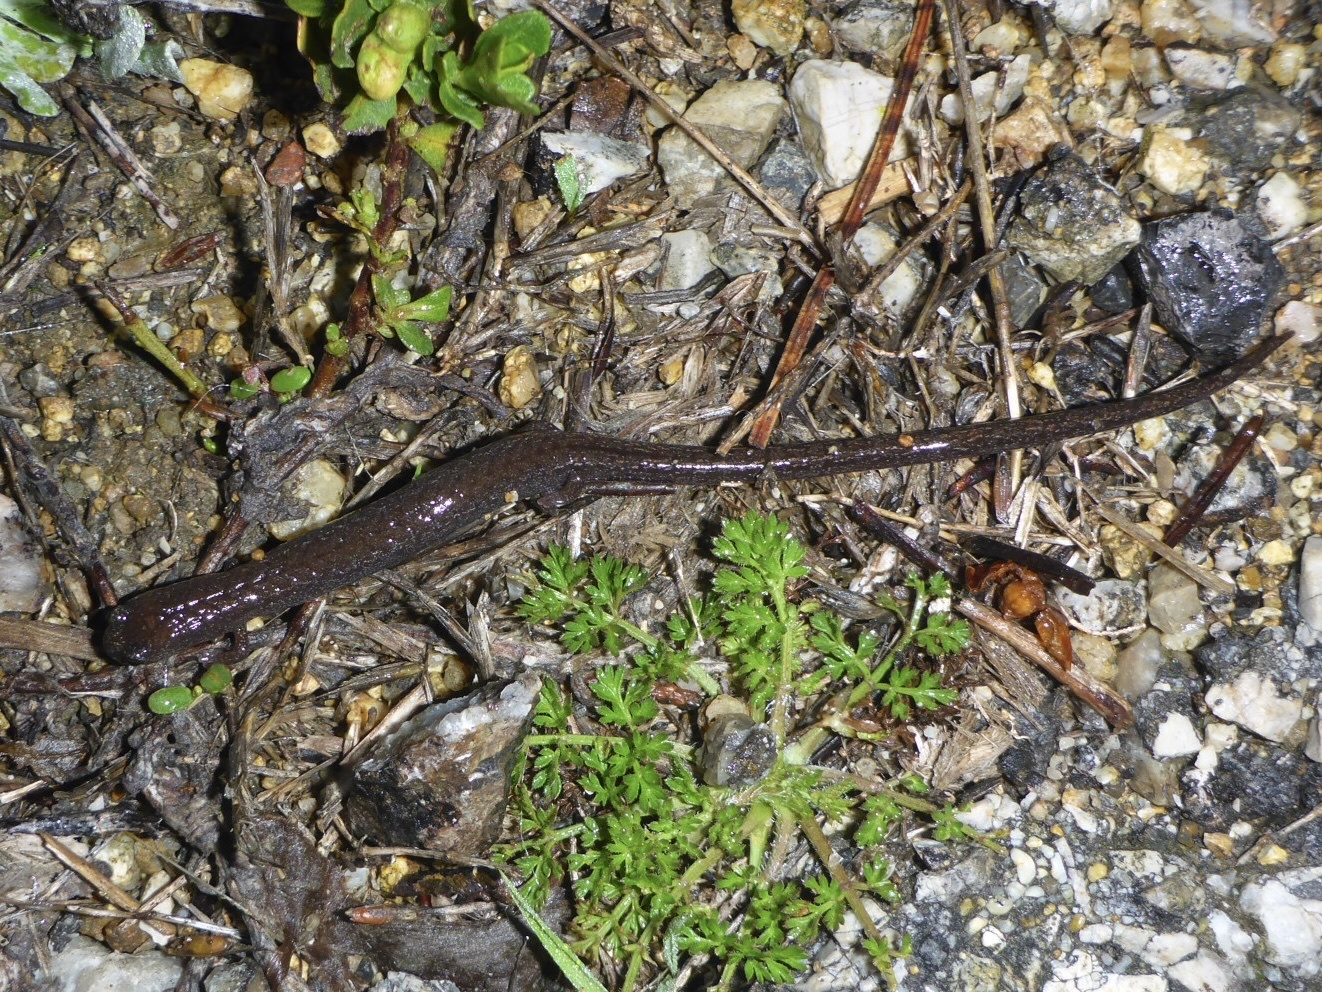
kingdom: Animalia
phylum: Chordata
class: Amphibia
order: Caudata
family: Plethodontidae
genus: Batrachoseps
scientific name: Batrachoseps attenuatus
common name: California slender salamander
